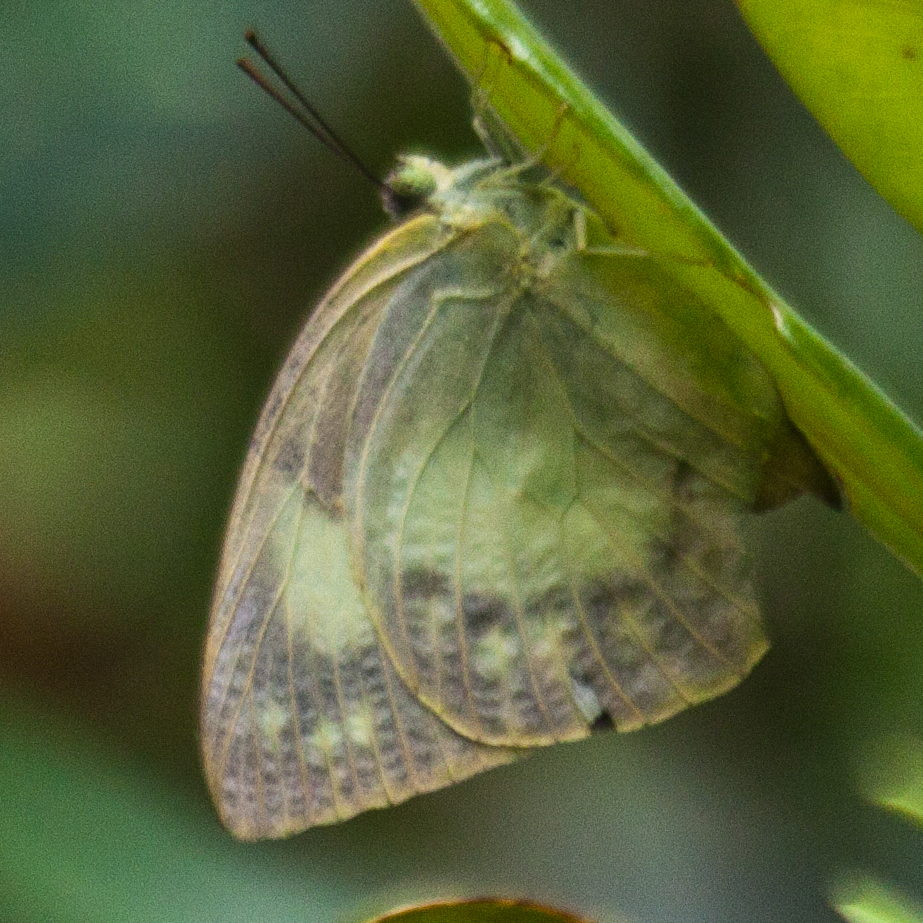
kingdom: Animalia
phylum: Arthropoda
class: Insecta
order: Lepidoptera
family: Pieridae
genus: Catopsilia
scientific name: Catopsilia pomona
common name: Common emigrant
